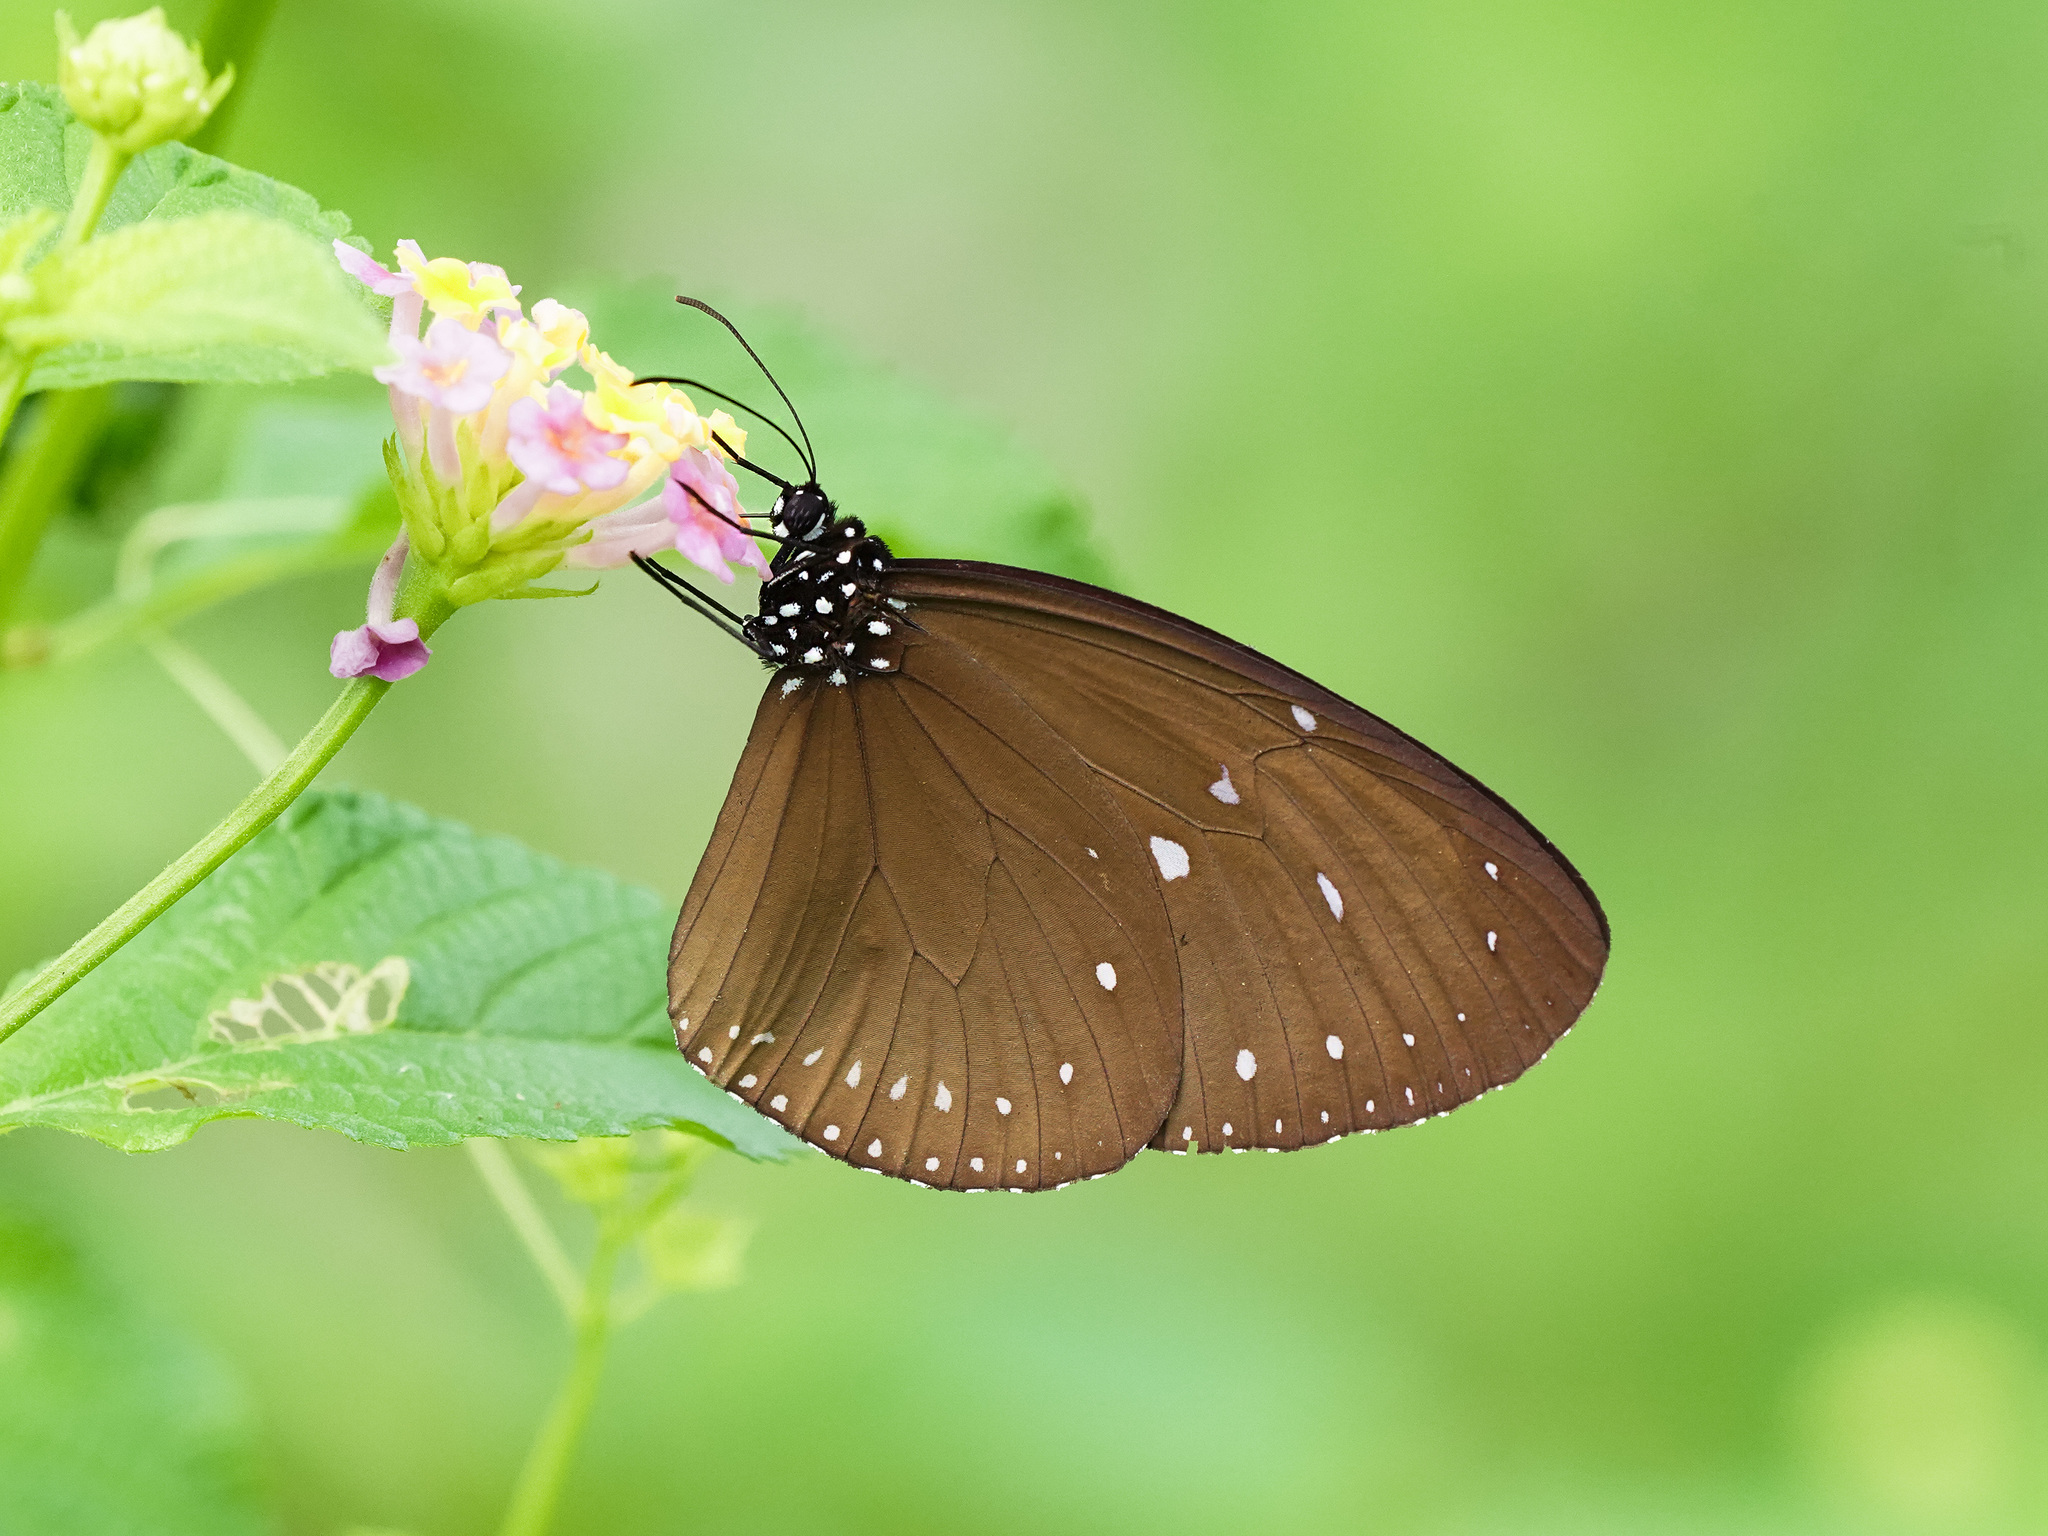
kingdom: Animalia
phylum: Arthropoda
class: Insecta
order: Lepidoptera
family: Nymphalidae
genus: Euploea
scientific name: Euploea tulliolus
